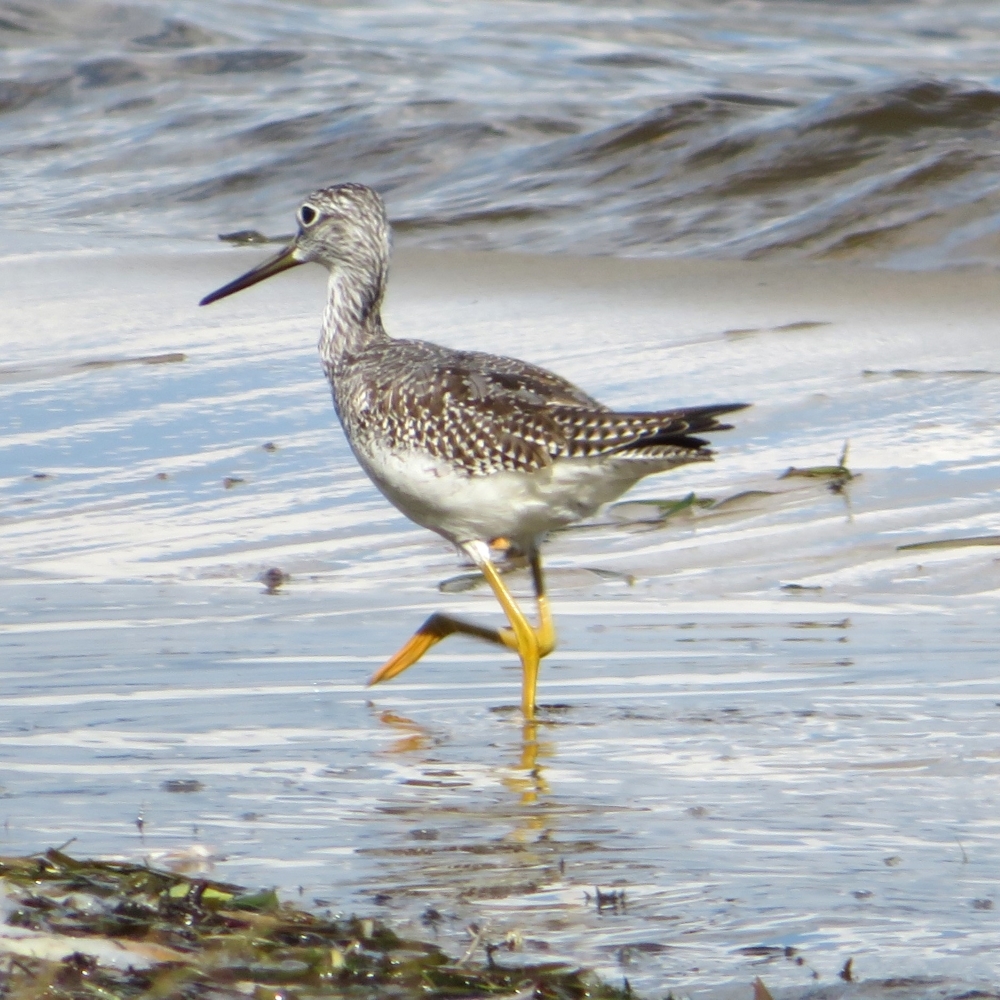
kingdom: Animalia
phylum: Chordata
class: Aves
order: Charadriiformes
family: Scolopacidae
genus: Tringa
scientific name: Tringa melanoleuca
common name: Greater yellowlegs
